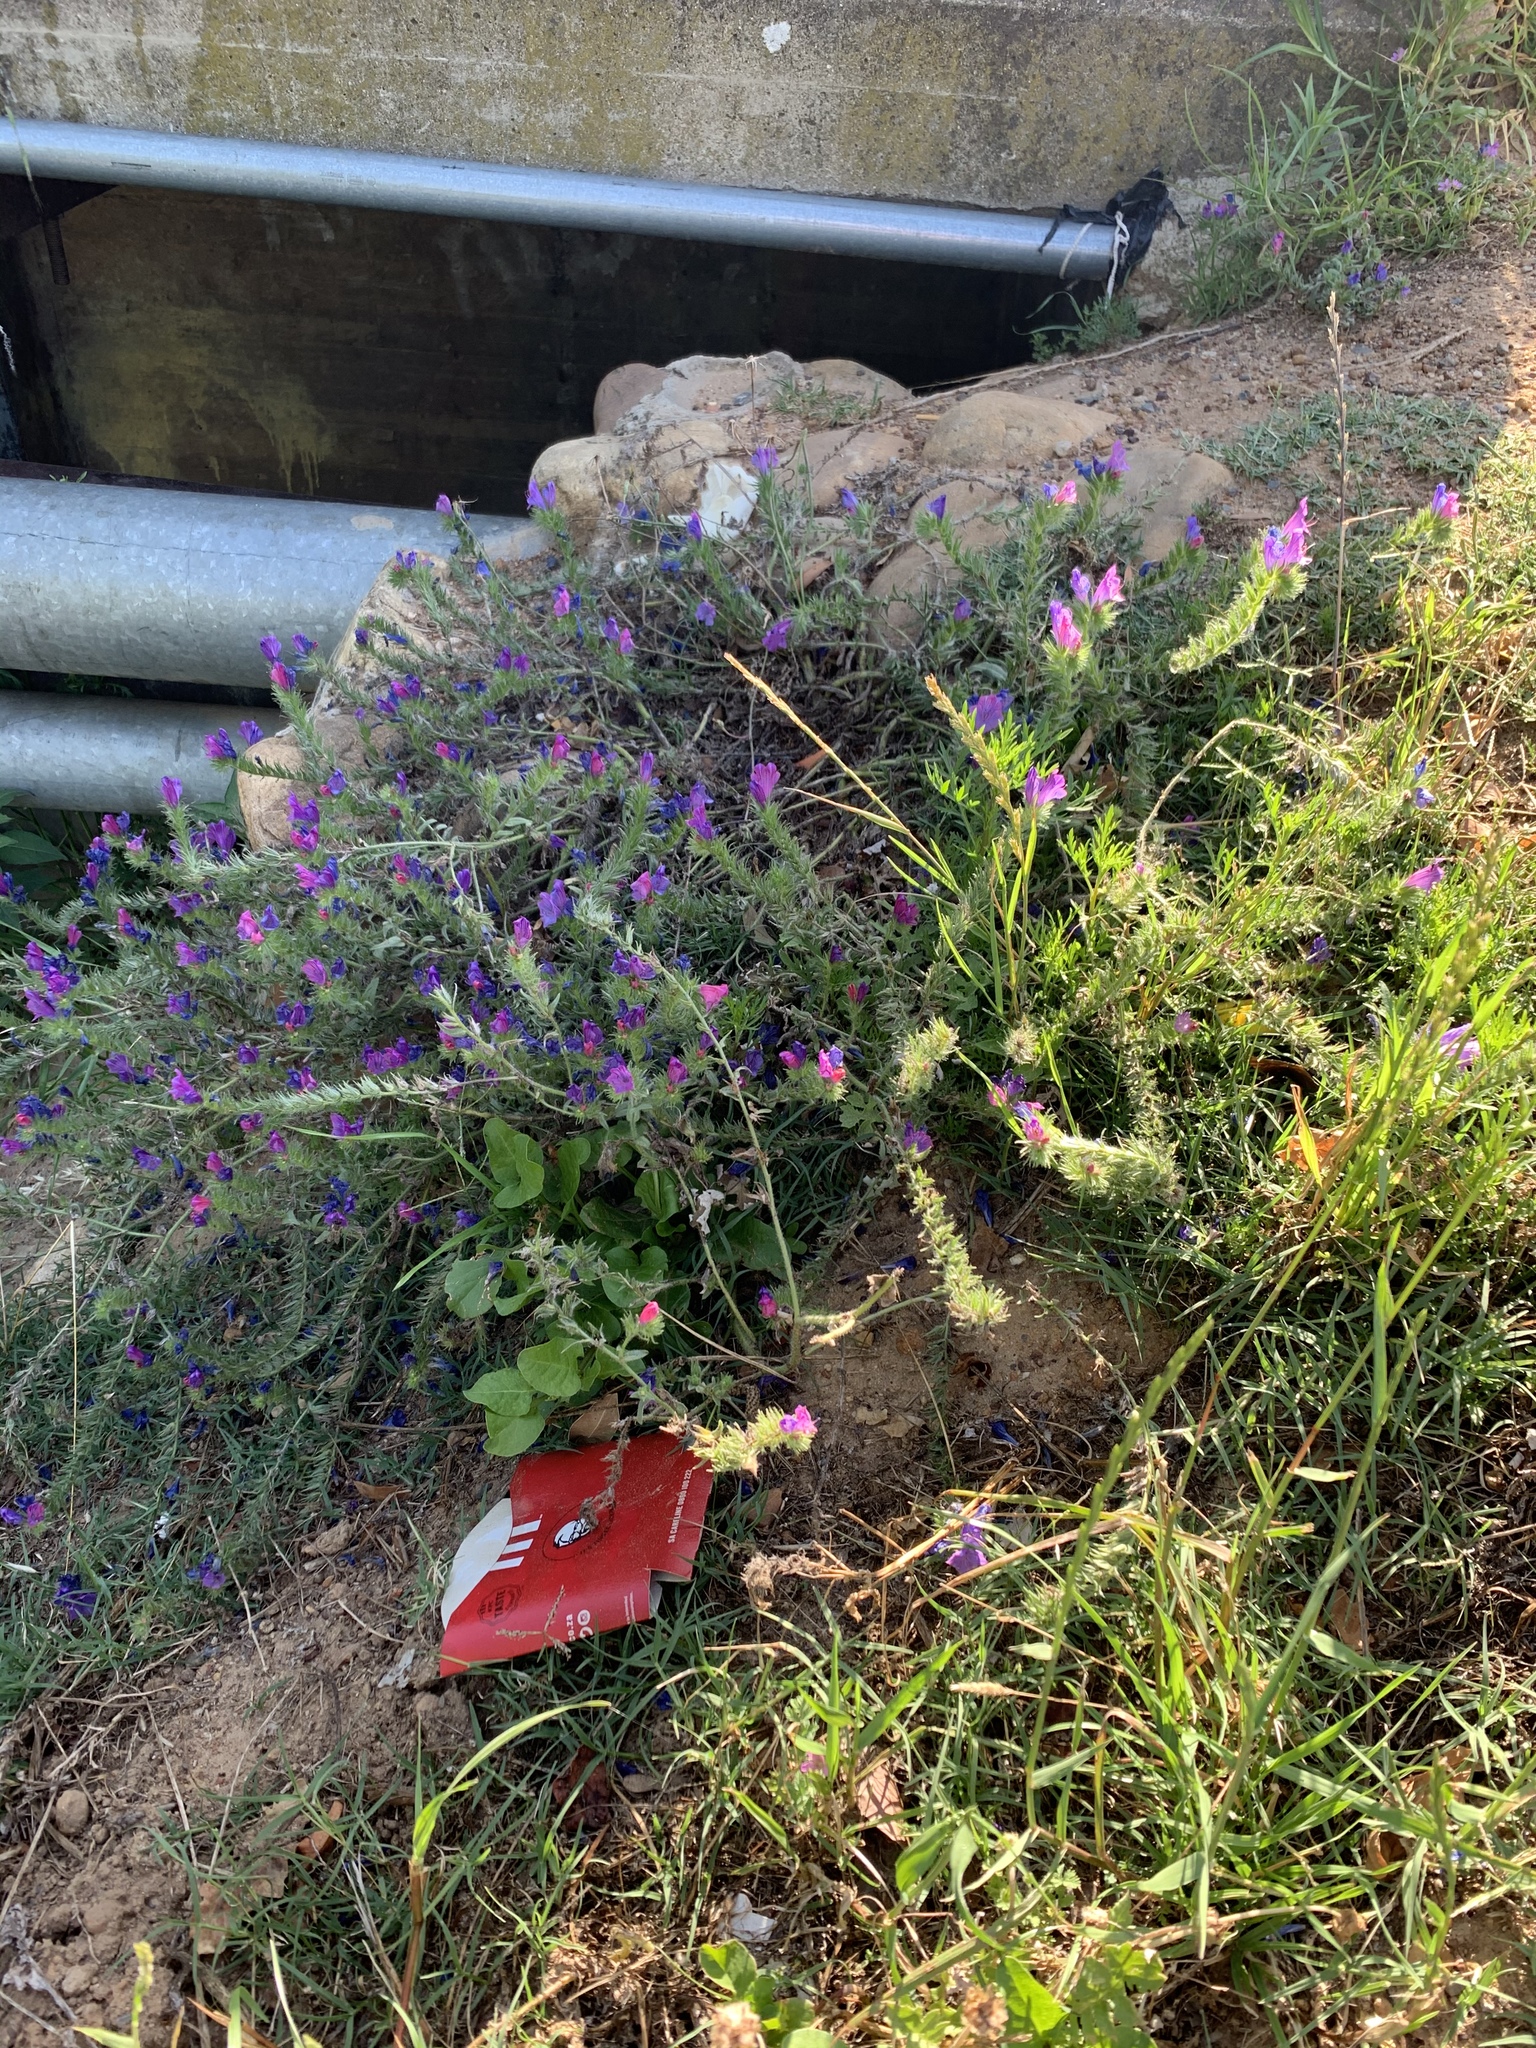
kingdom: Plantae
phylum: Tracheophyta
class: Magnoliopsida
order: Boraginales
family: Boraginaceae
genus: Echium
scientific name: Echium plantagineum
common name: Purple viper's-bugloss
